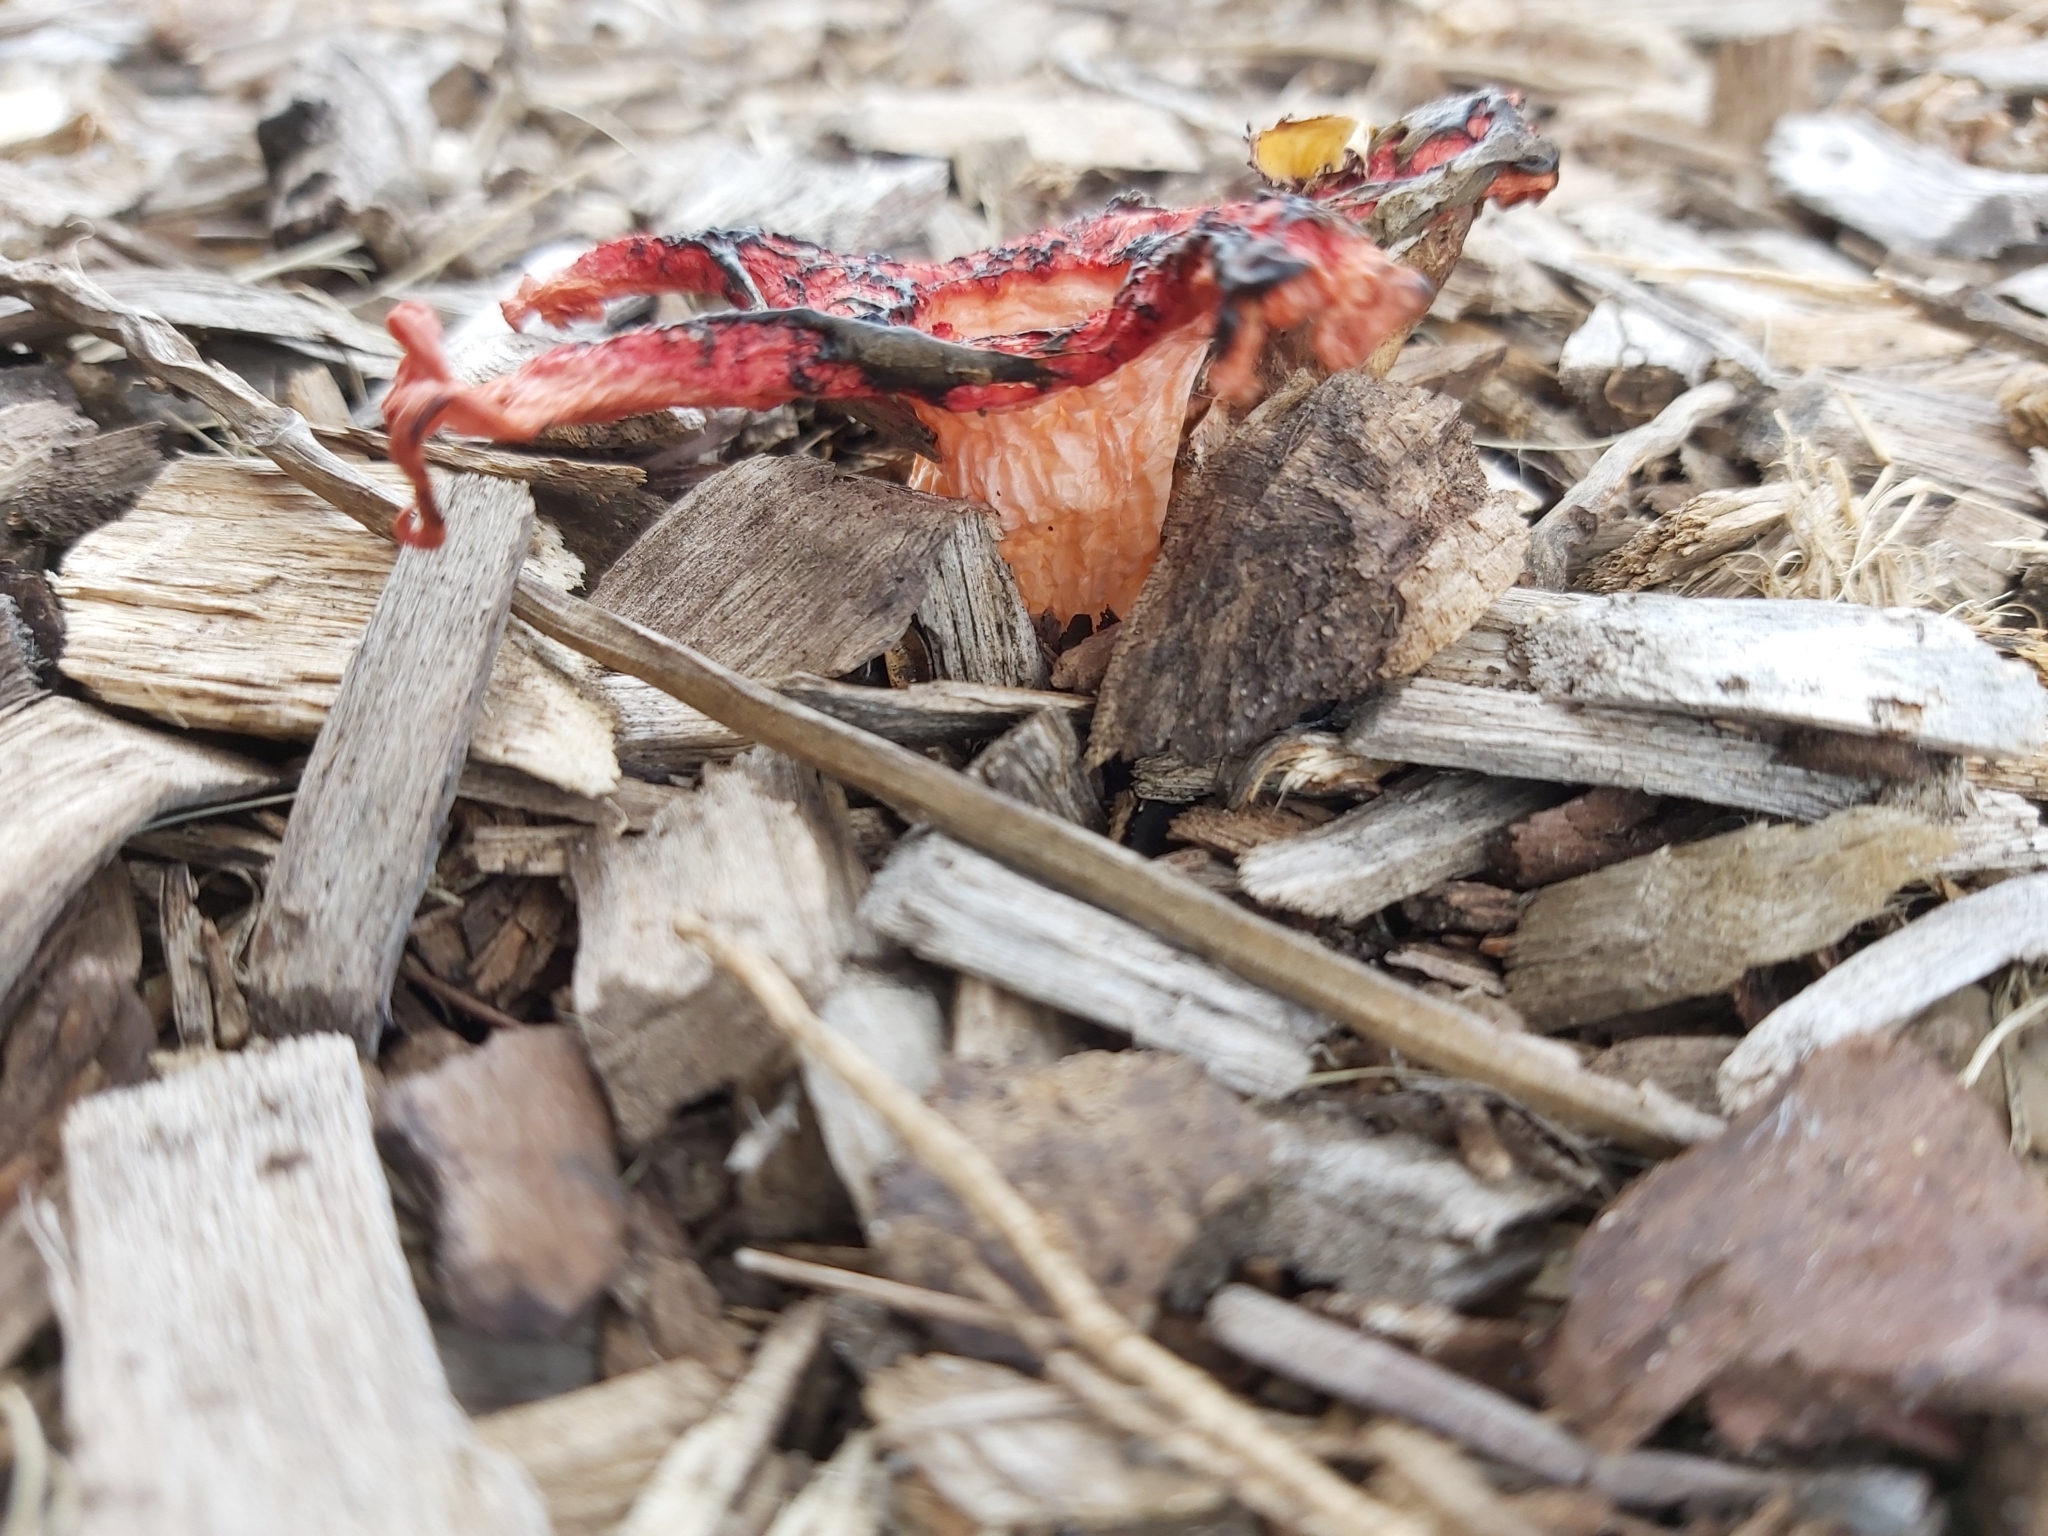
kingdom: Fungi
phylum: Basidiomycota
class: Agaricomycetes
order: Phallales
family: Phallaceae
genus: Aseroe
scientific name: Aseroe rubra
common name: Starfish fungus
